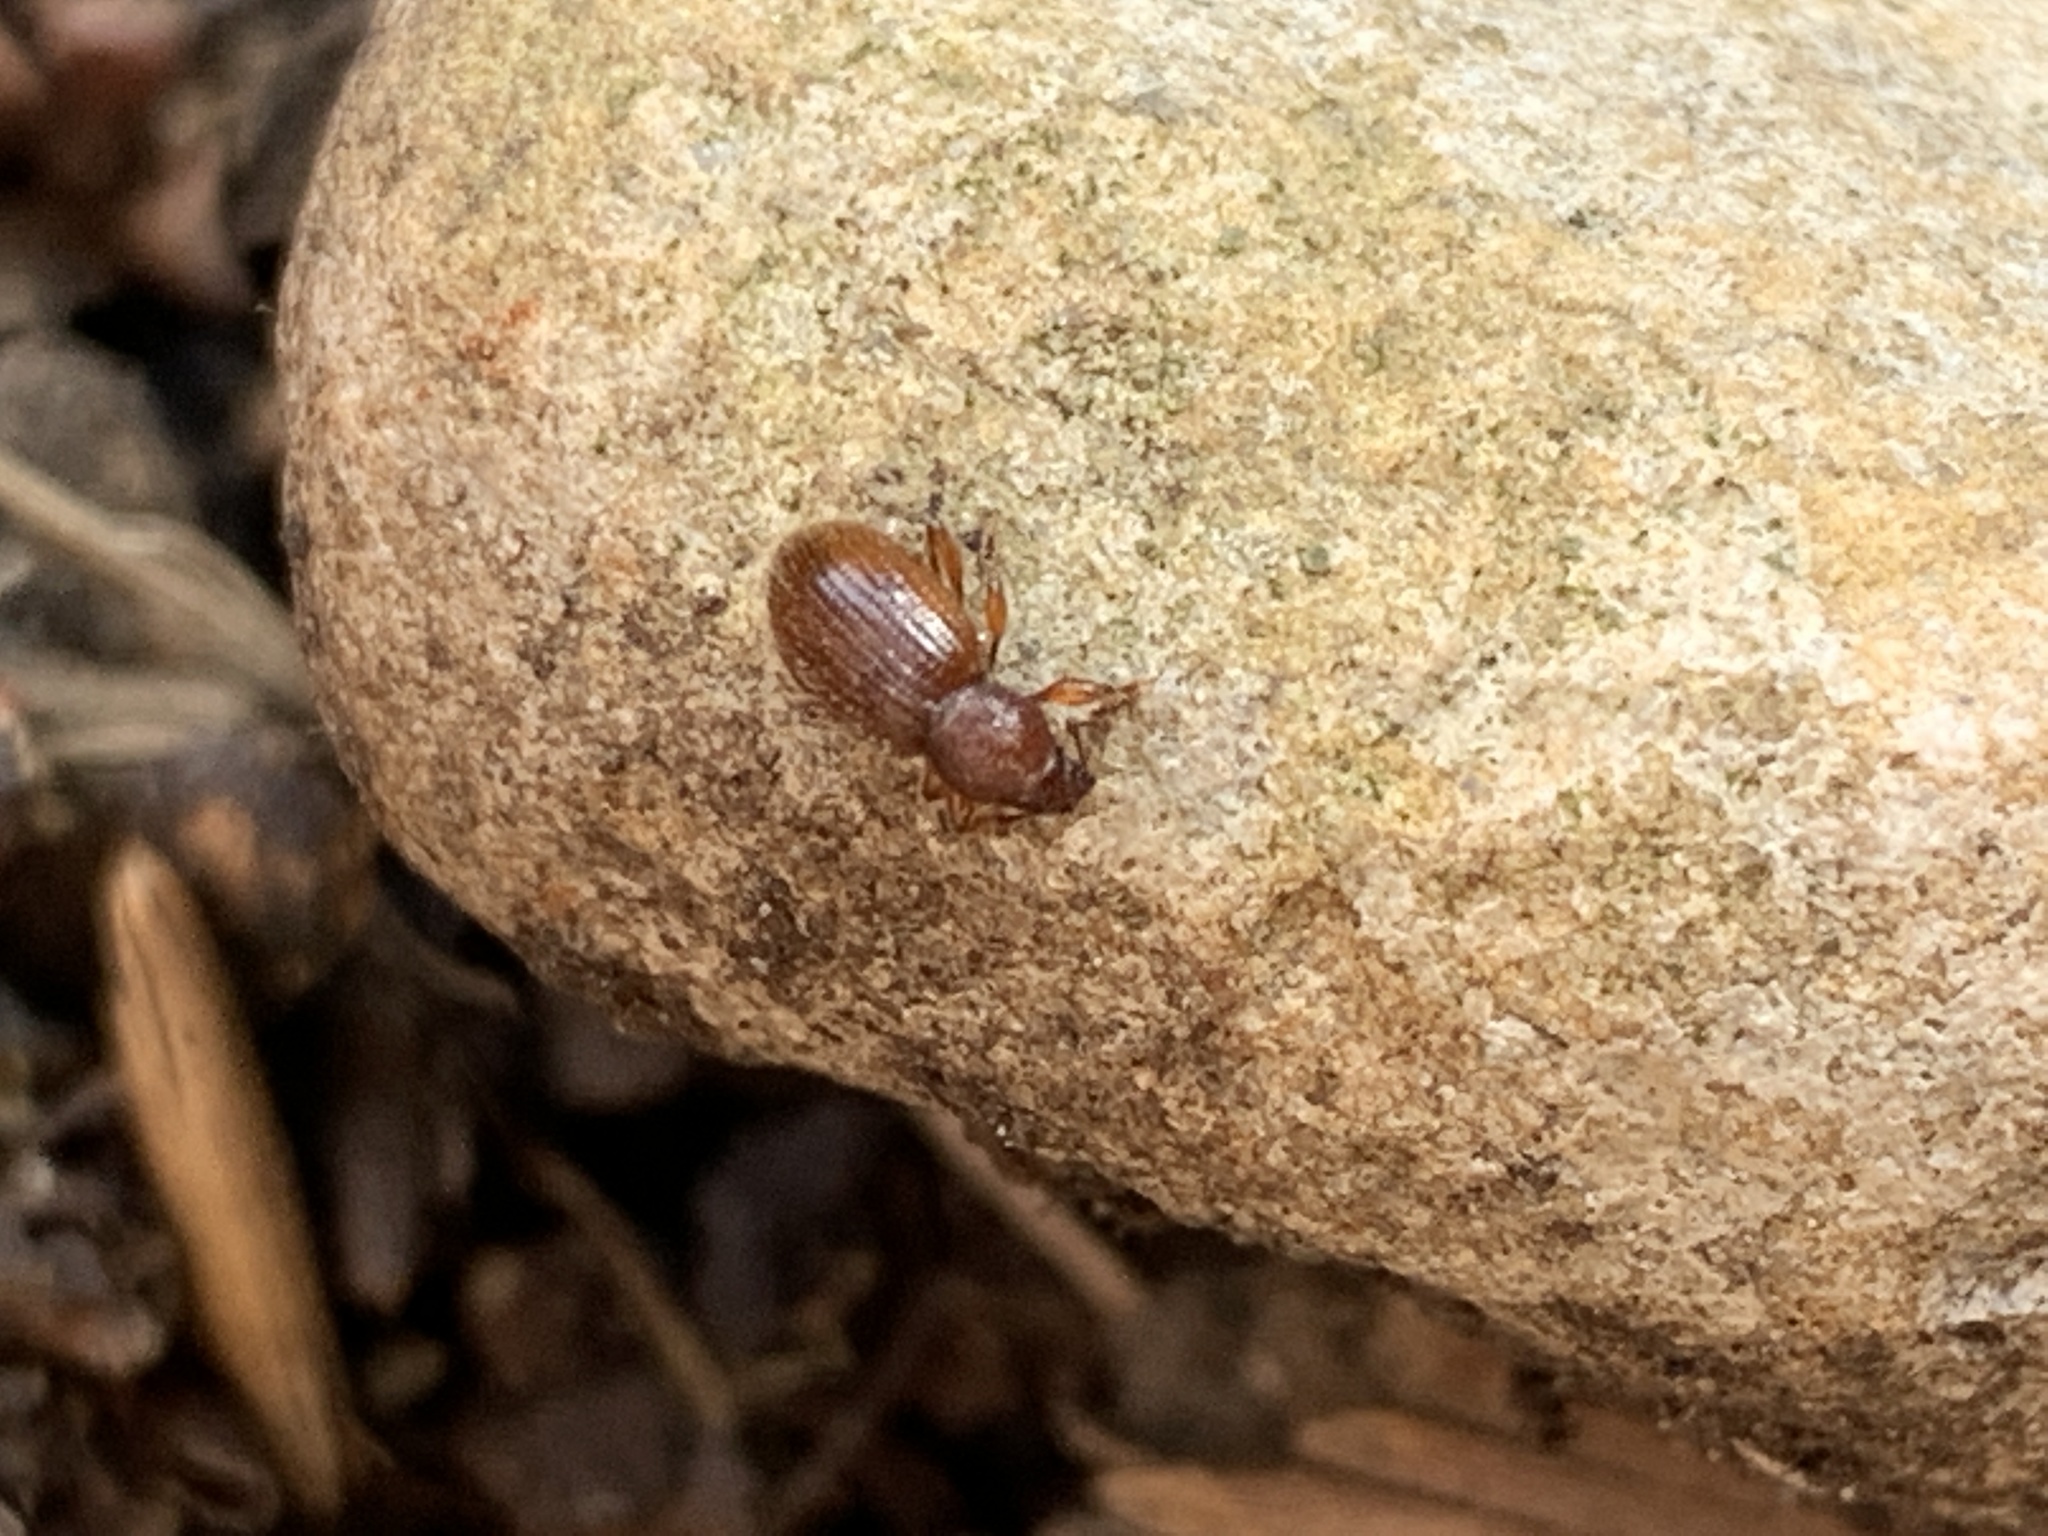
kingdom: Animalia
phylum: Arthropoda
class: Insecta
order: Coleoptera
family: Curculionidae
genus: Exomias
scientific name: Exomias pellucidus
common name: Hairy spider weevil
